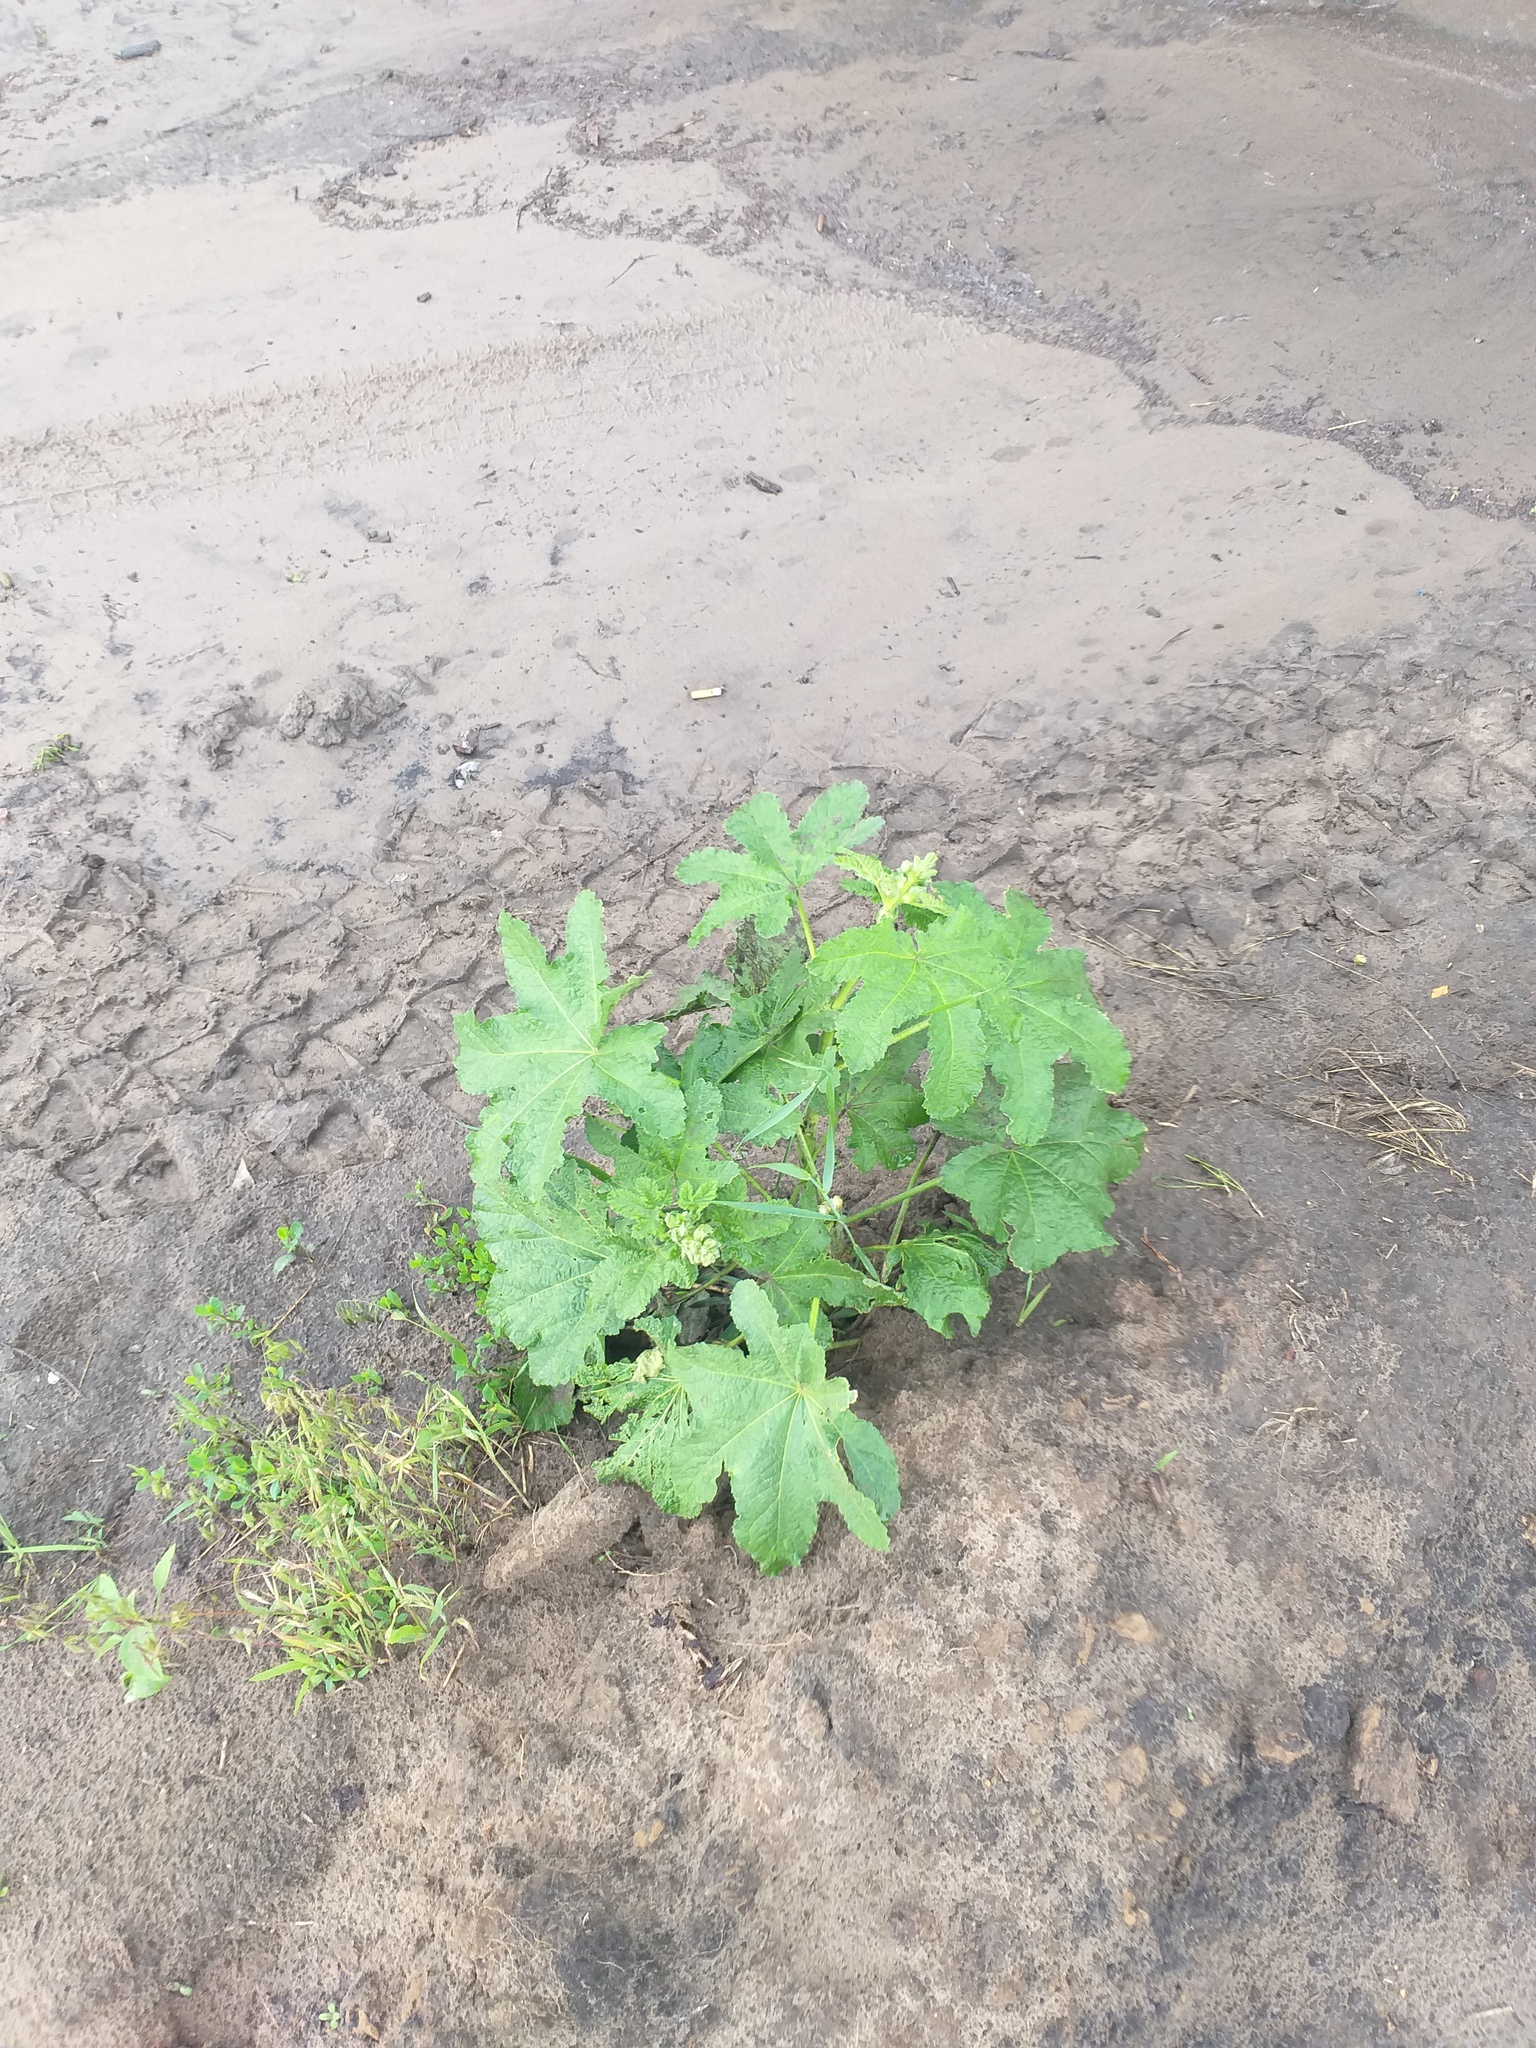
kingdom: Plantae
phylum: Tracheophyta
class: Magnoliopsida
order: Malvales
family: Malvaceae
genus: Alcea
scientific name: Alcea rosea
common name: Hollyhock
